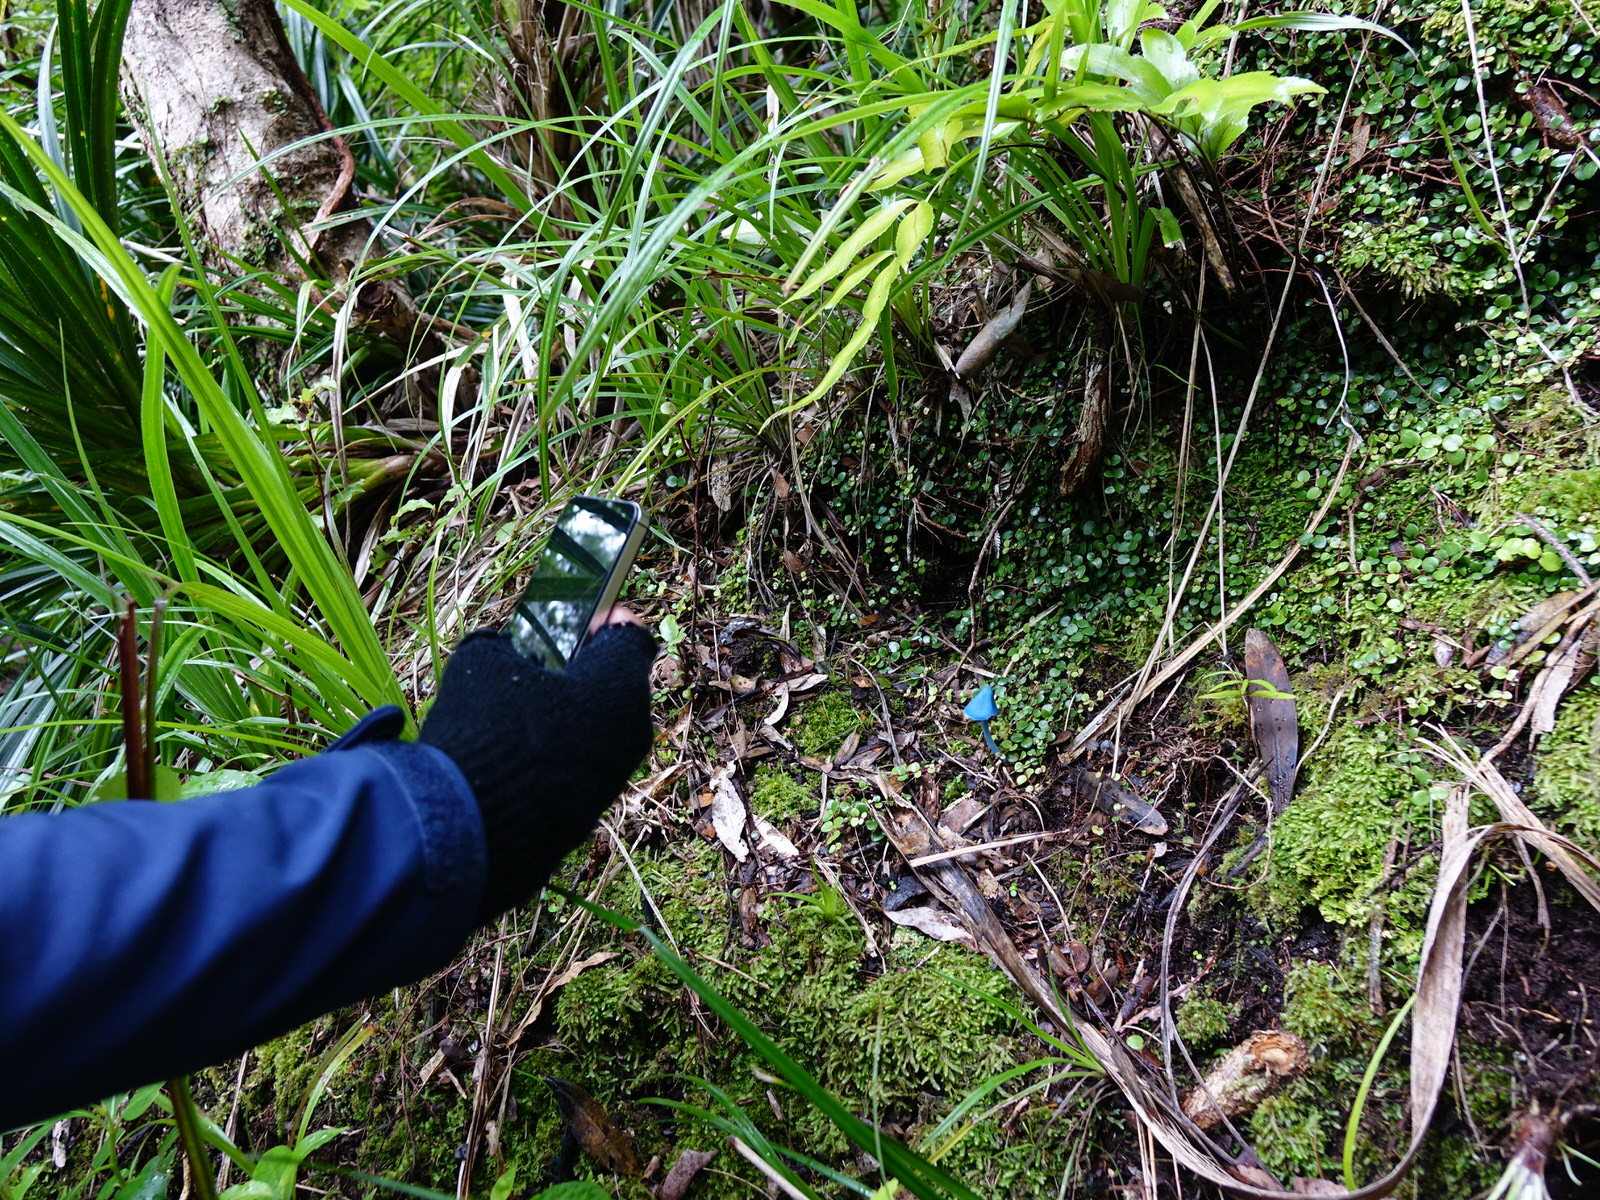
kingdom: Fungi
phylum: Basidiomycota
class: Agaricomycetes
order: Agaricales
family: Entolomataceae
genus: Entoloma
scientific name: Entoloma hochstetteri
